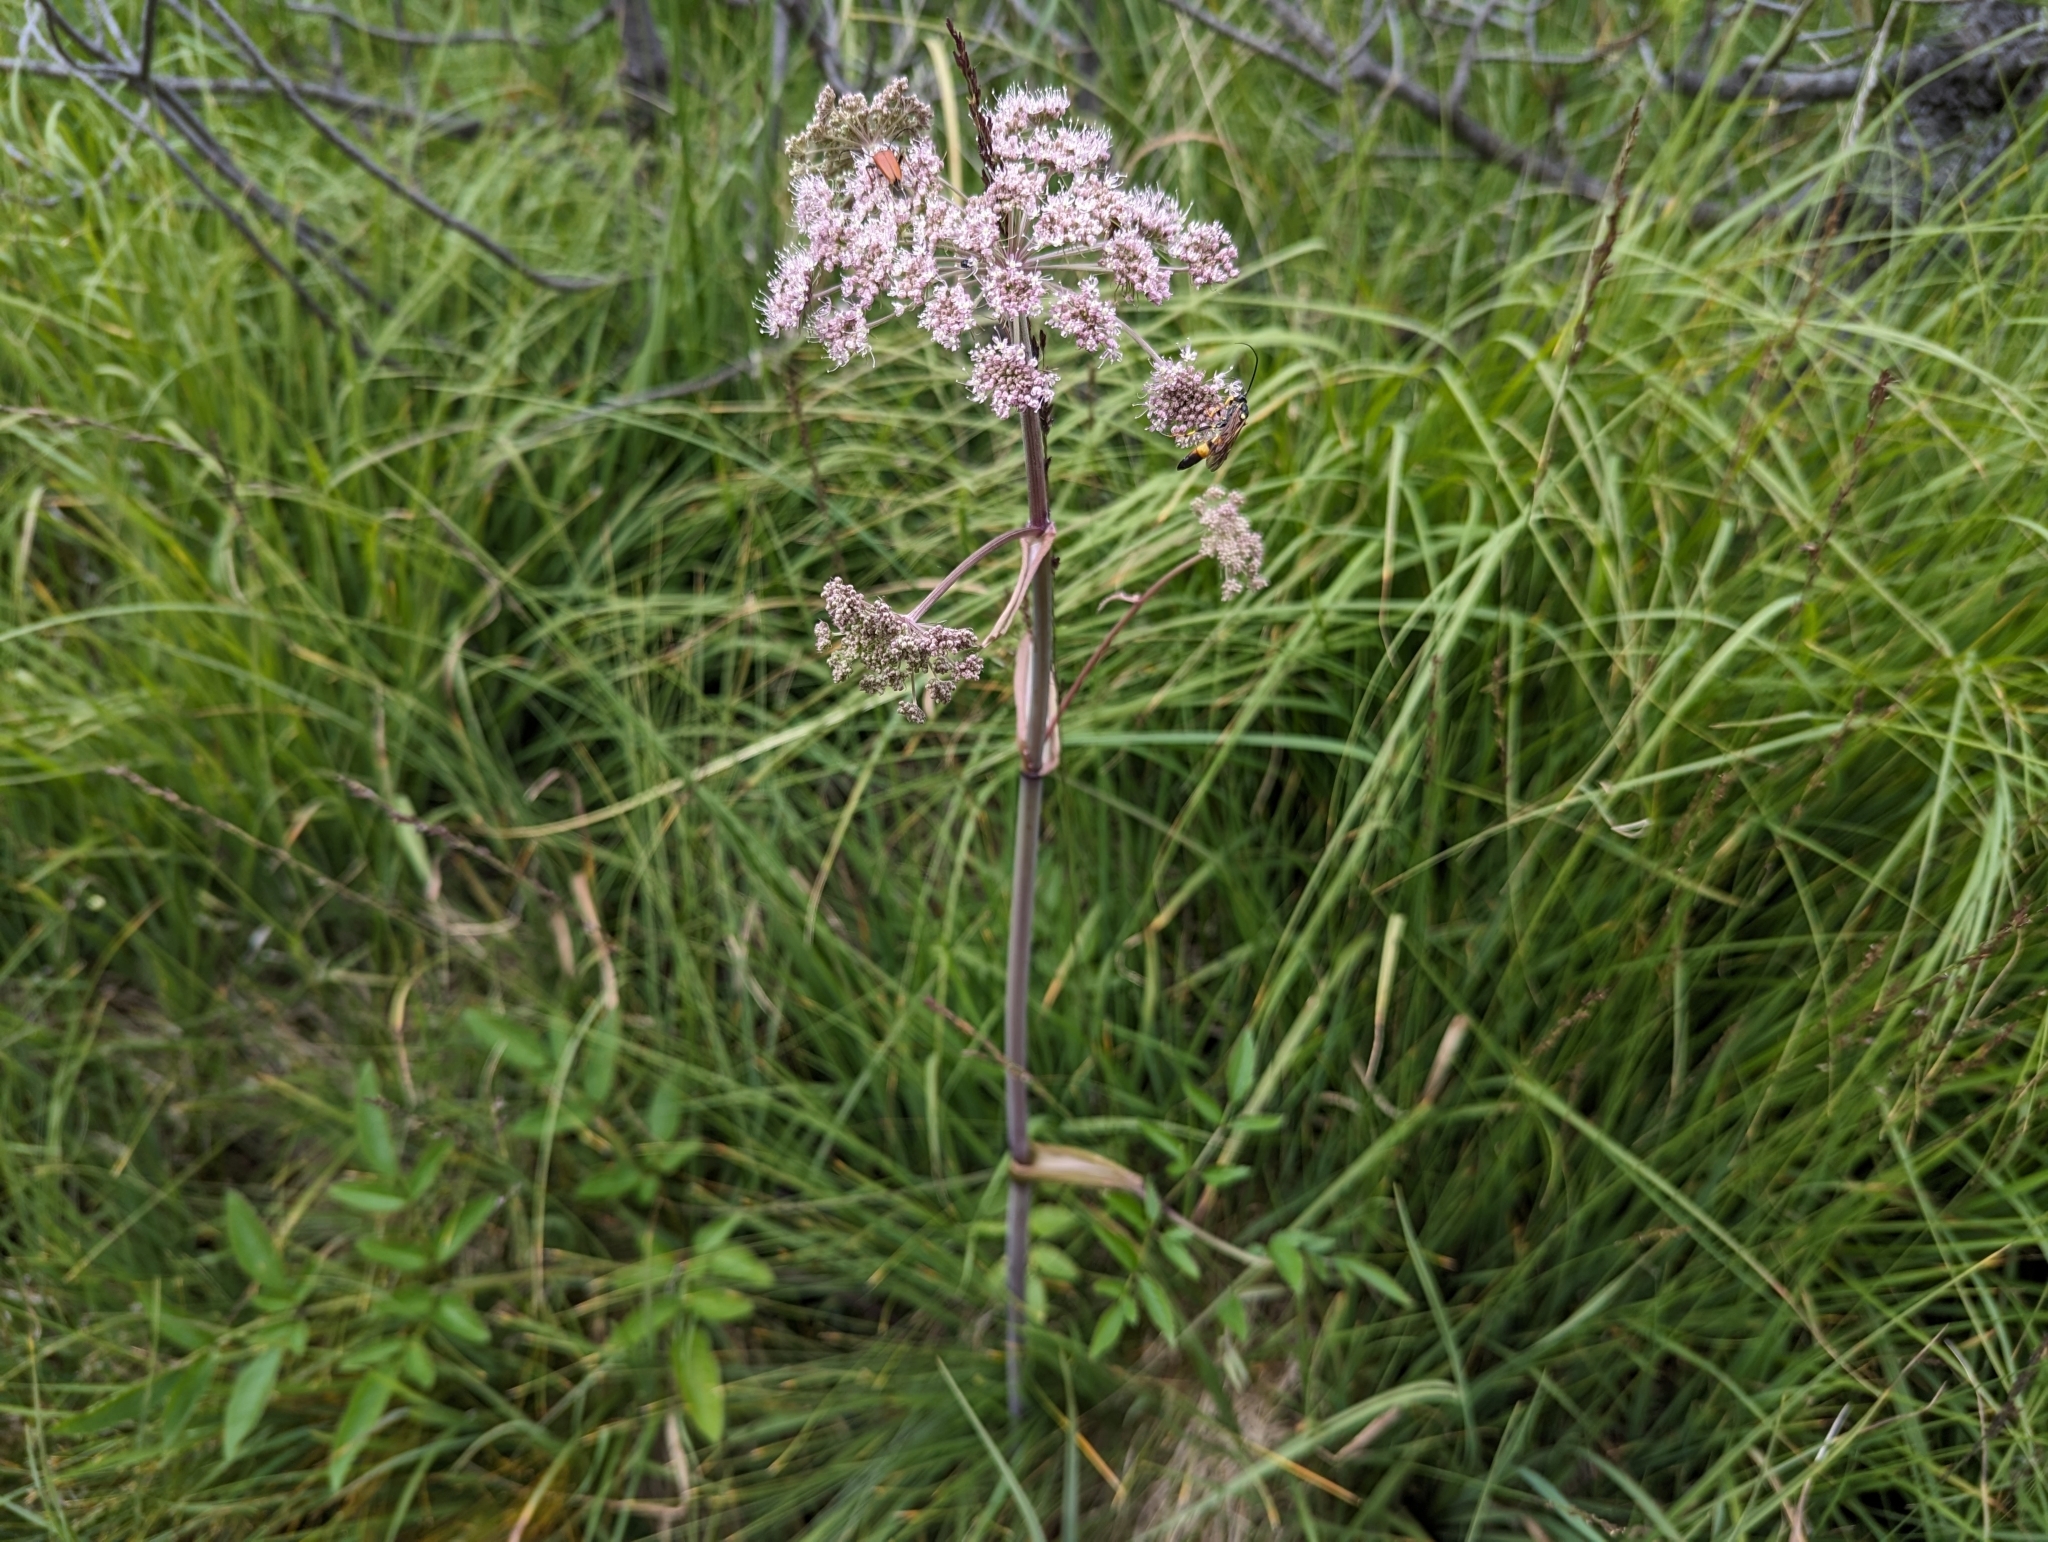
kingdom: Plantae
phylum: Tracheophyta
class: Magnoliopsida
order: Apiales
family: Apiaceae
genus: Angelica
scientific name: Angelica sylvestris
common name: Wild angelica
